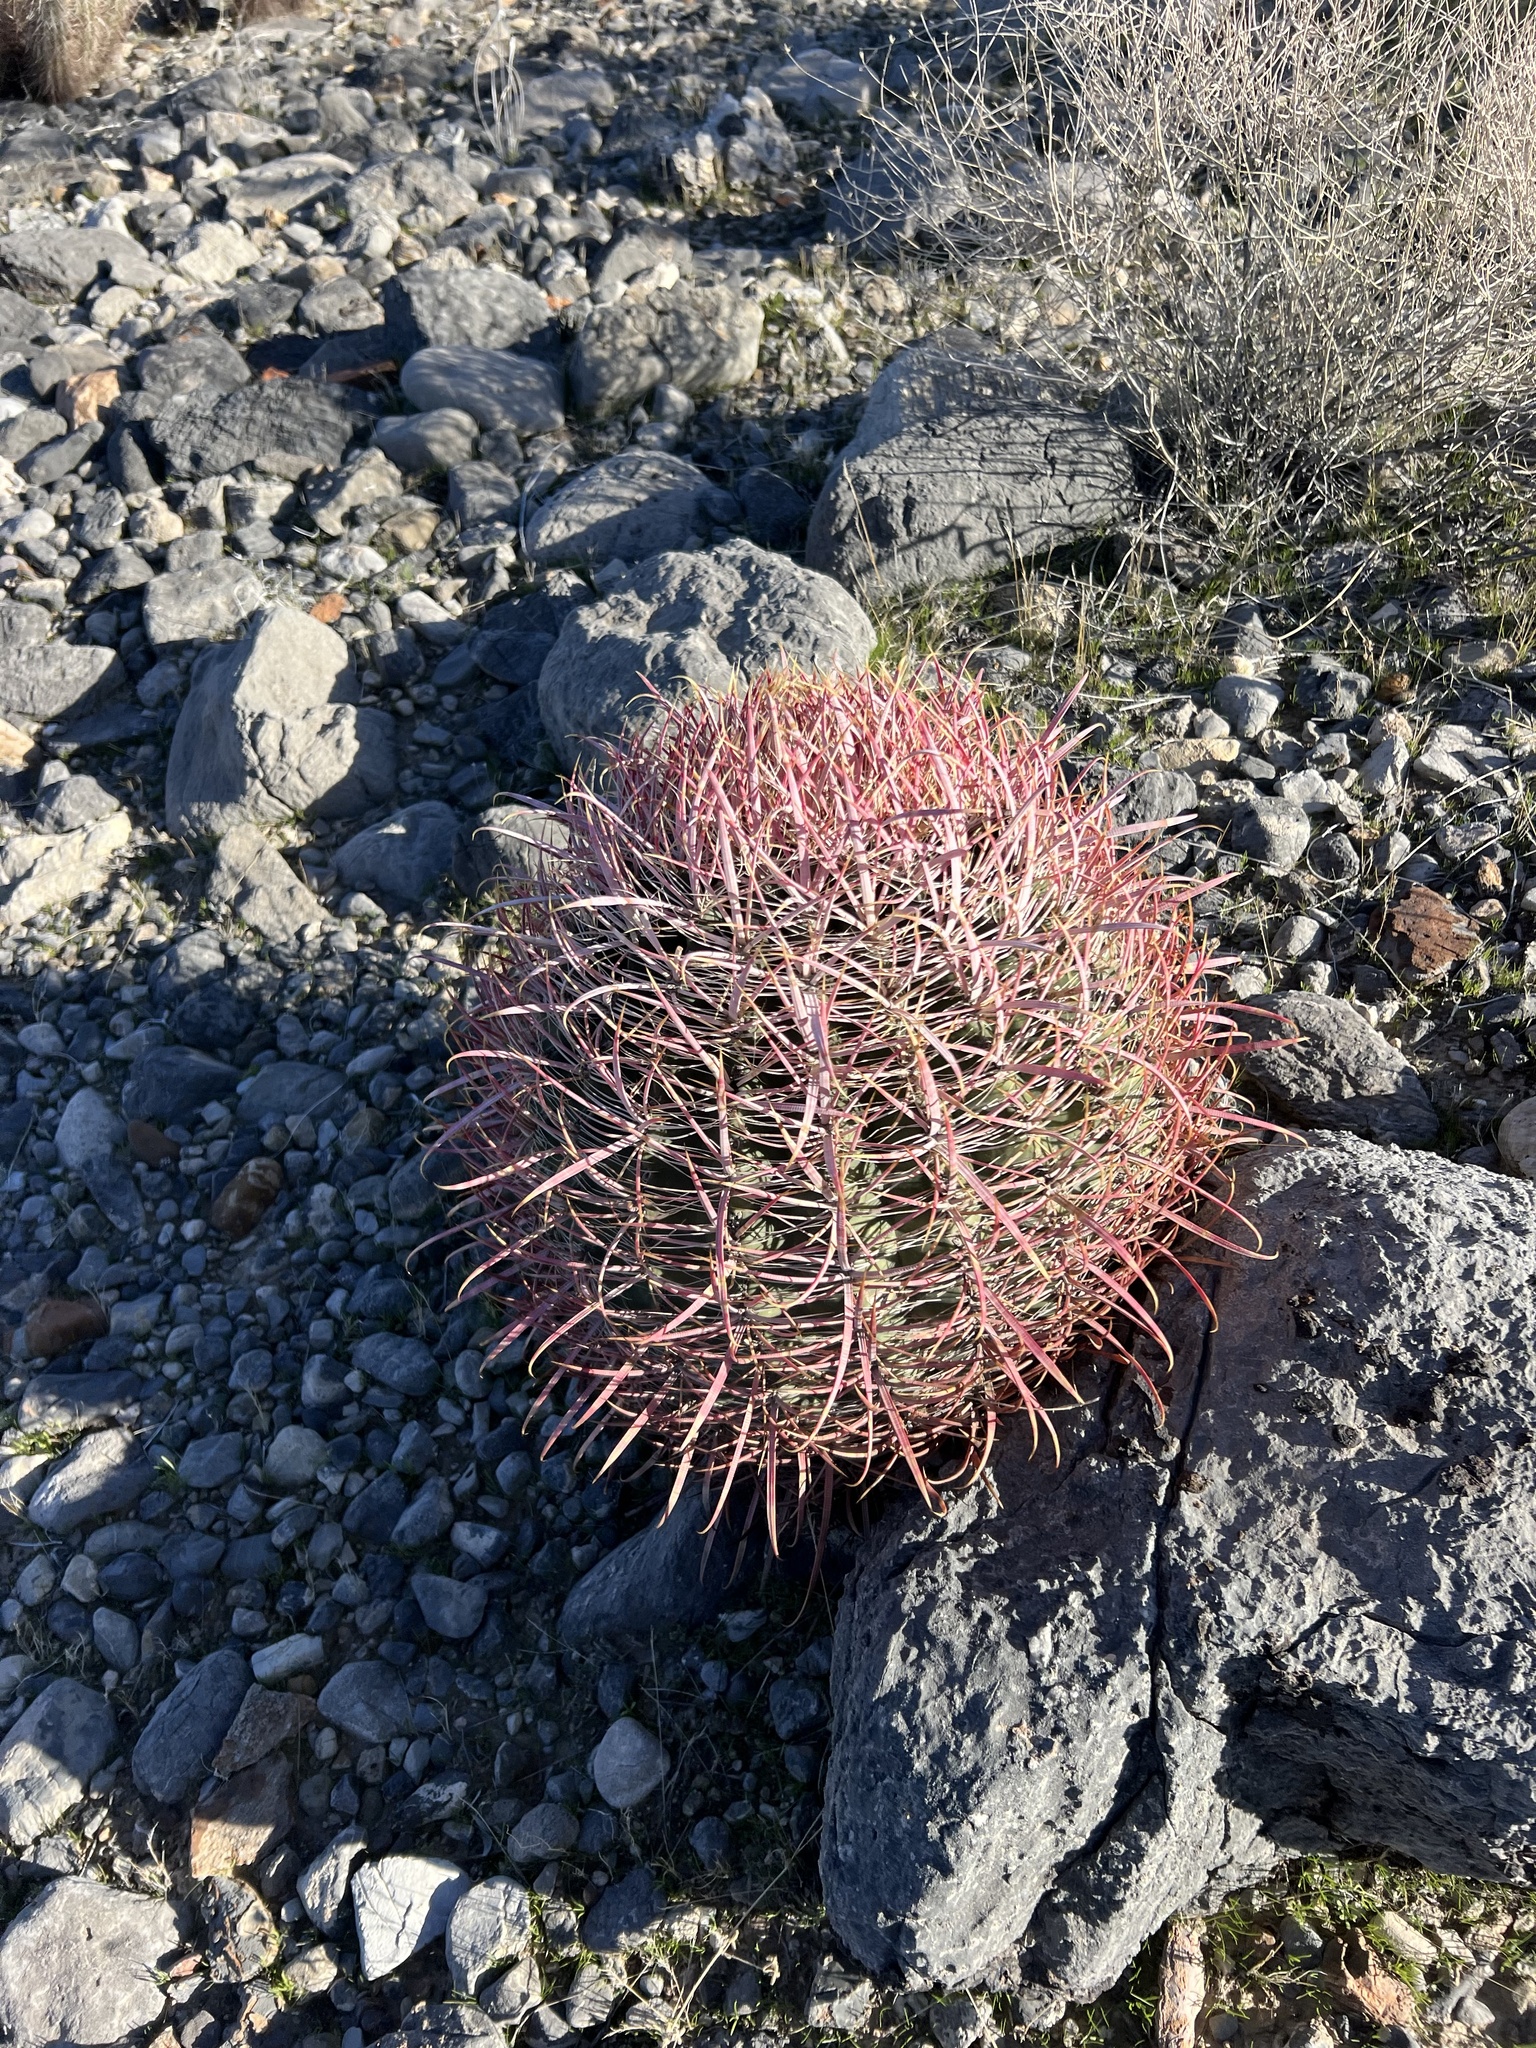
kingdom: Plantae
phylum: Tracheophyta
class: Magnoliopsida
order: Caryophyllales
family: Cactaceae
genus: Ferocactus
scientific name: Ferocactus cylindraceus
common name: California barrel cactus
